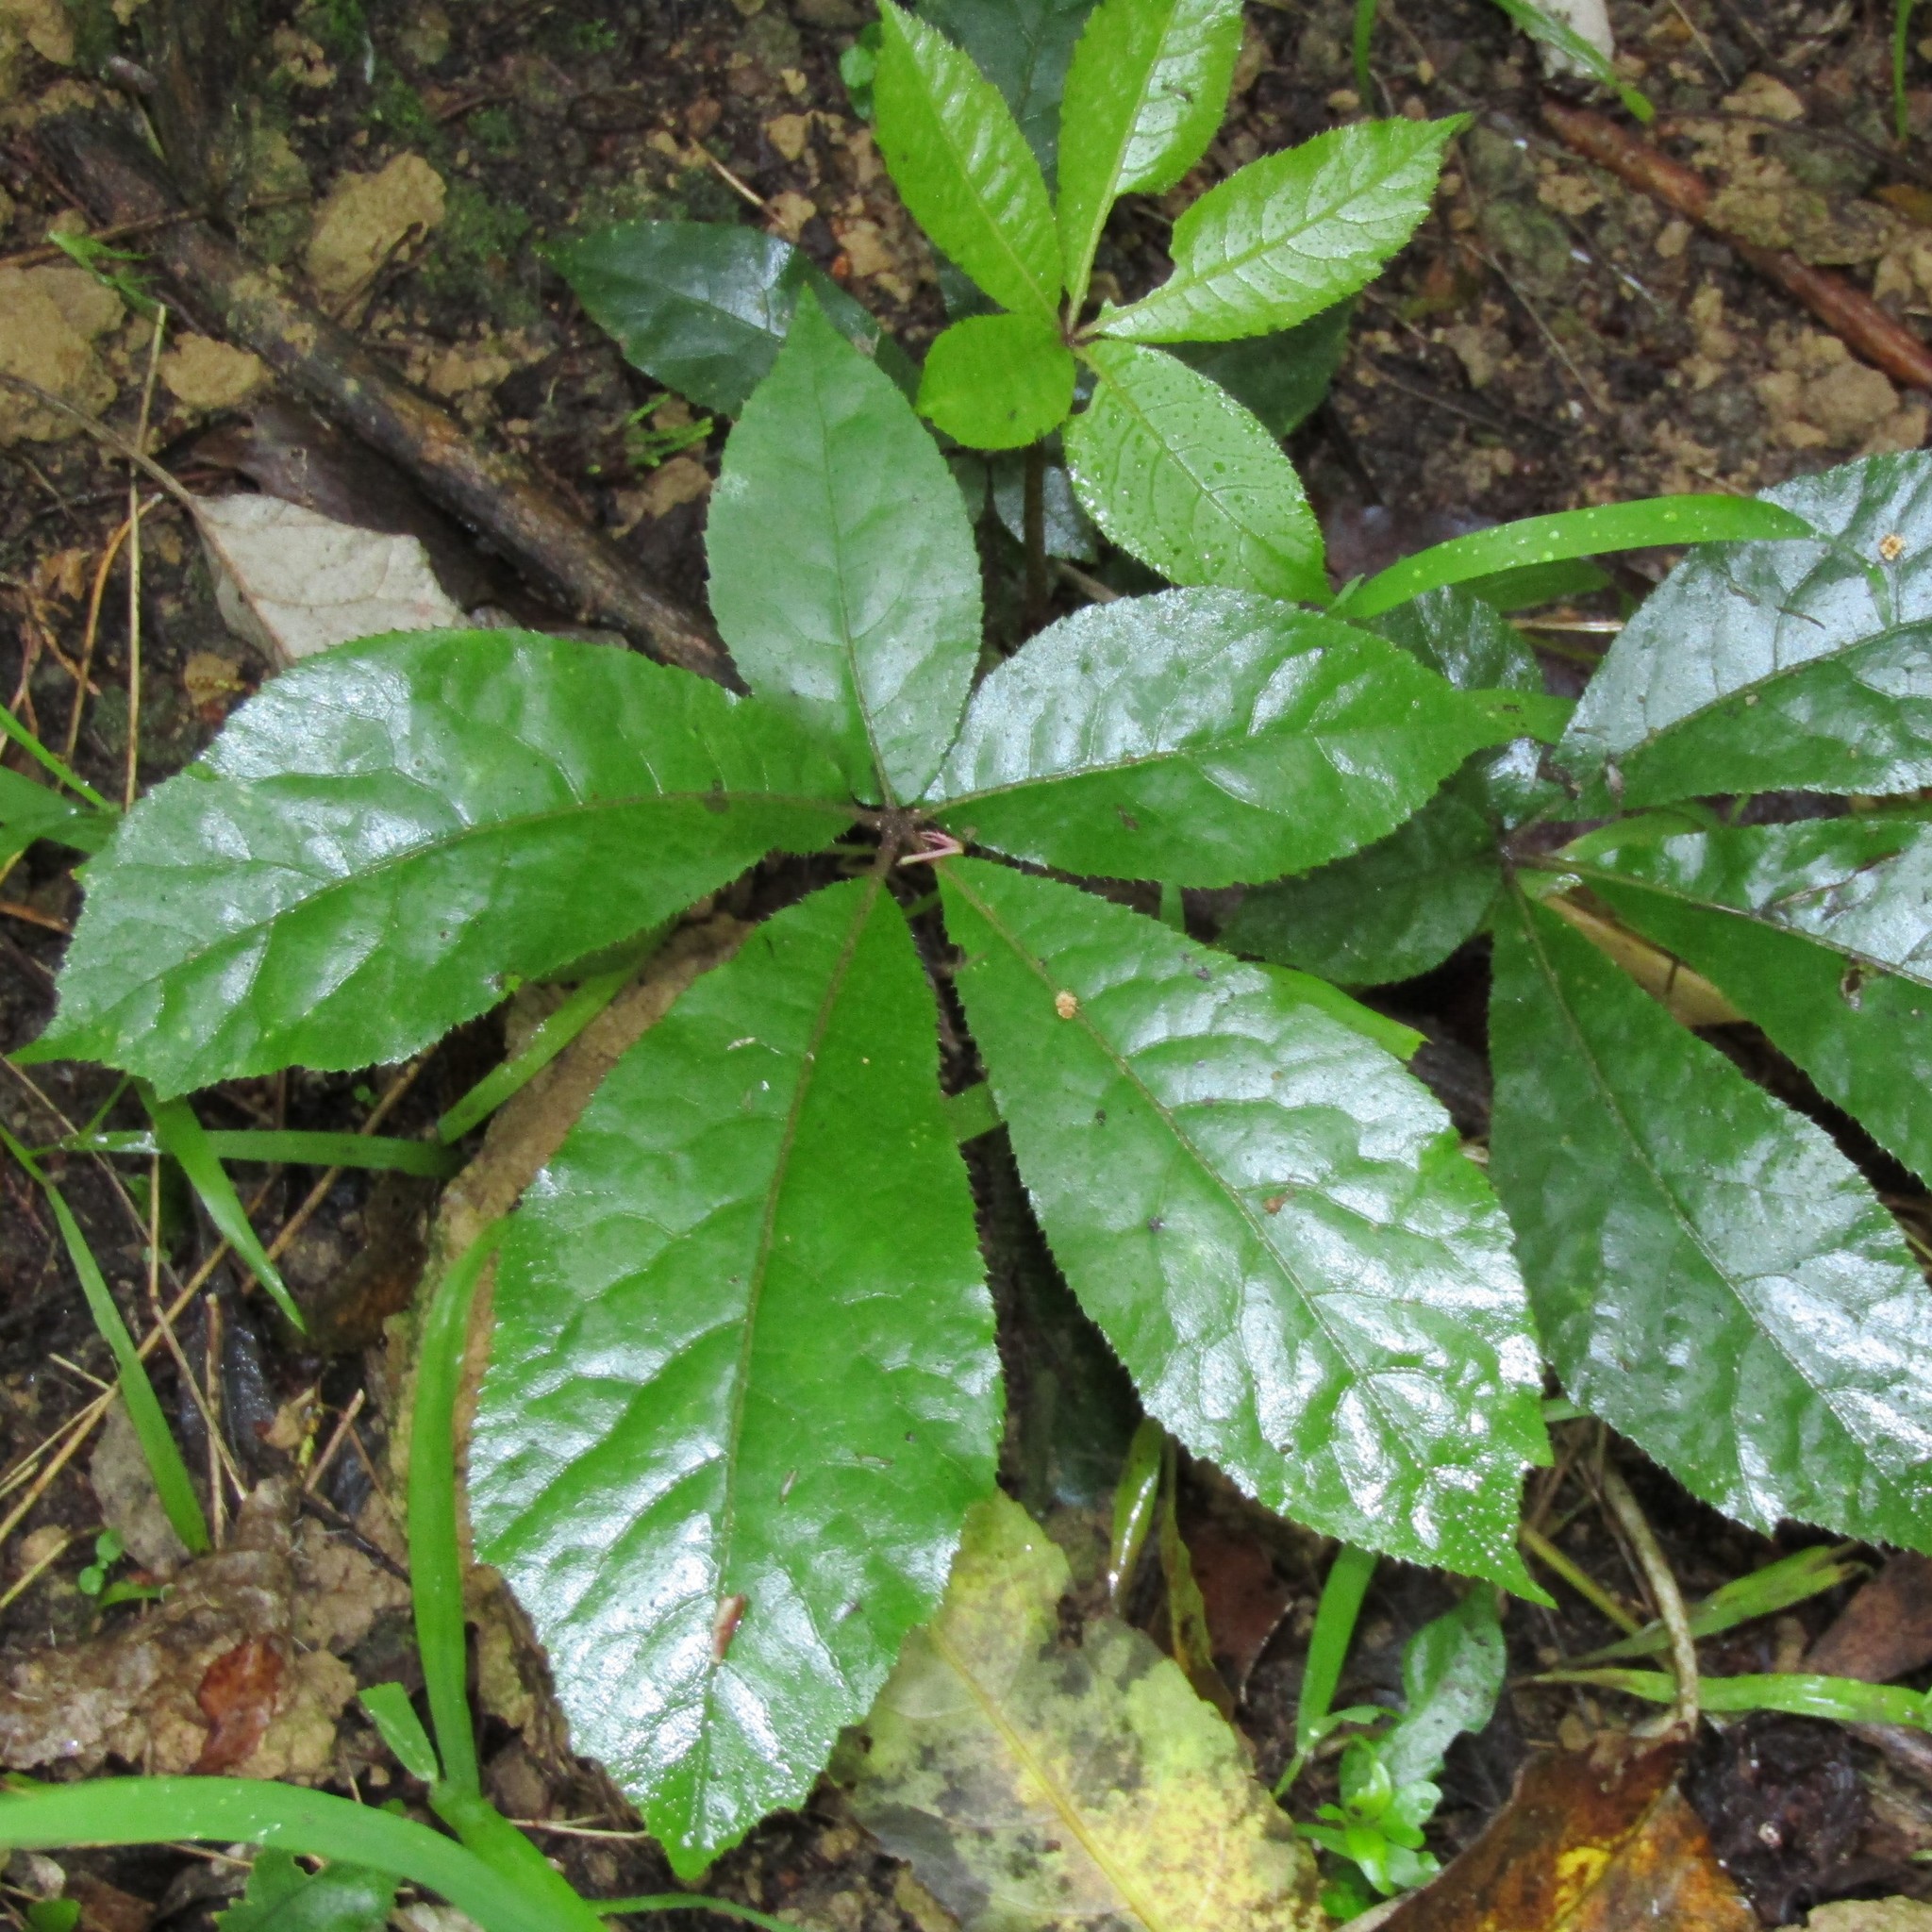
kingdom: Plantae
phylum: Tracheophyta
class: Magnoliopsida
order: Apiales
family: Araliaceae
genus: Schefflera
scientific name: Schefflera digitata
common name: Pate
